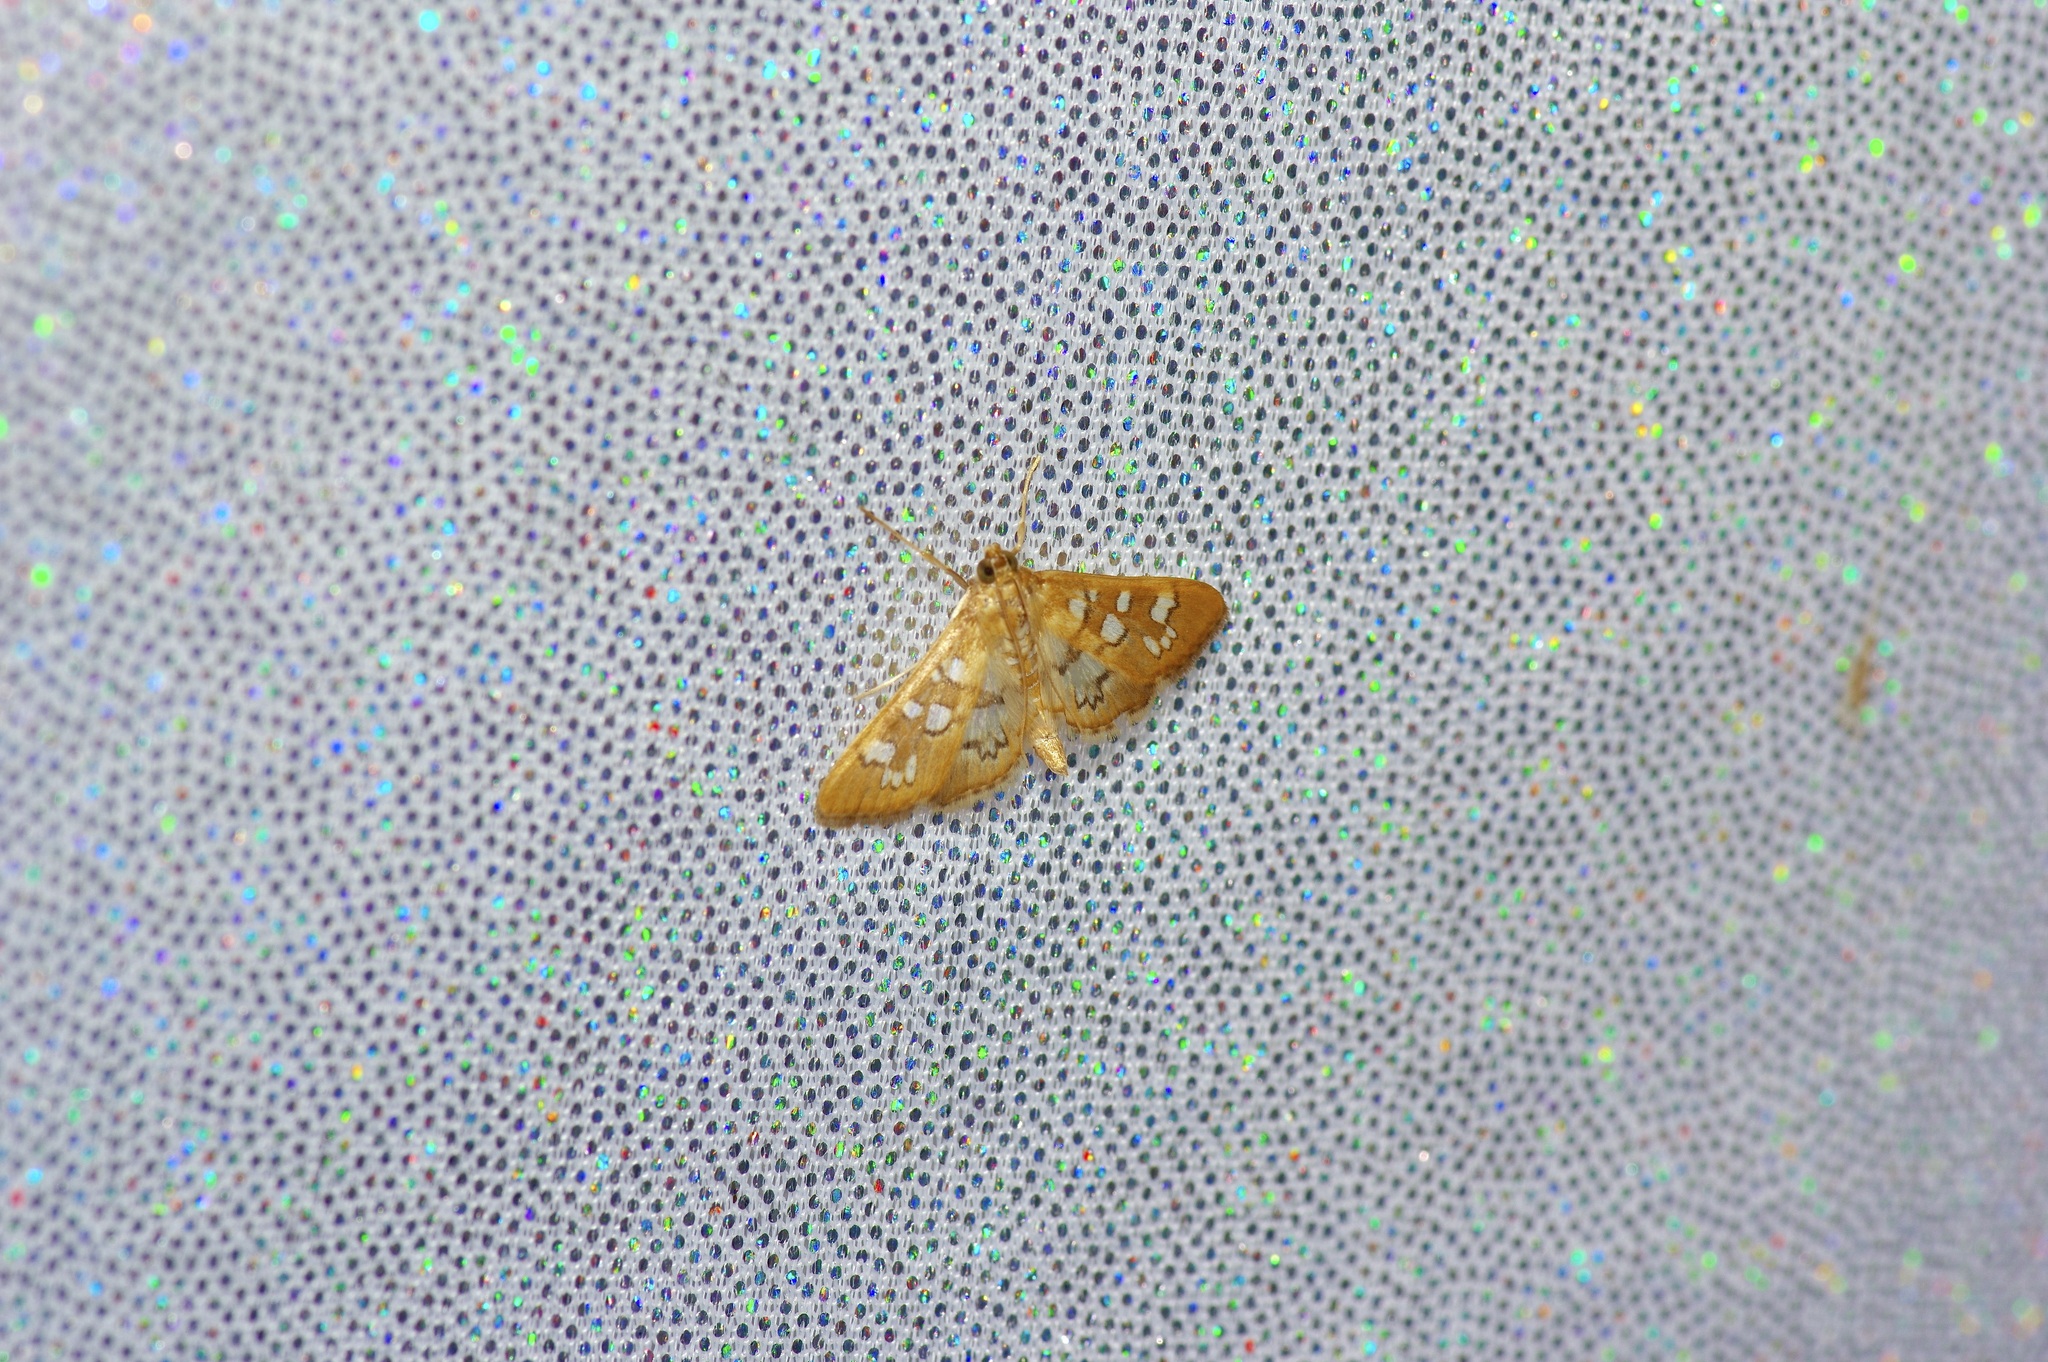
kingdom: Animalia
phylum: Arthropoda
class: Insecta
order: Lepidoptera
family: Crambidae
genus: Samea
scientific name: Samea baccatalis
